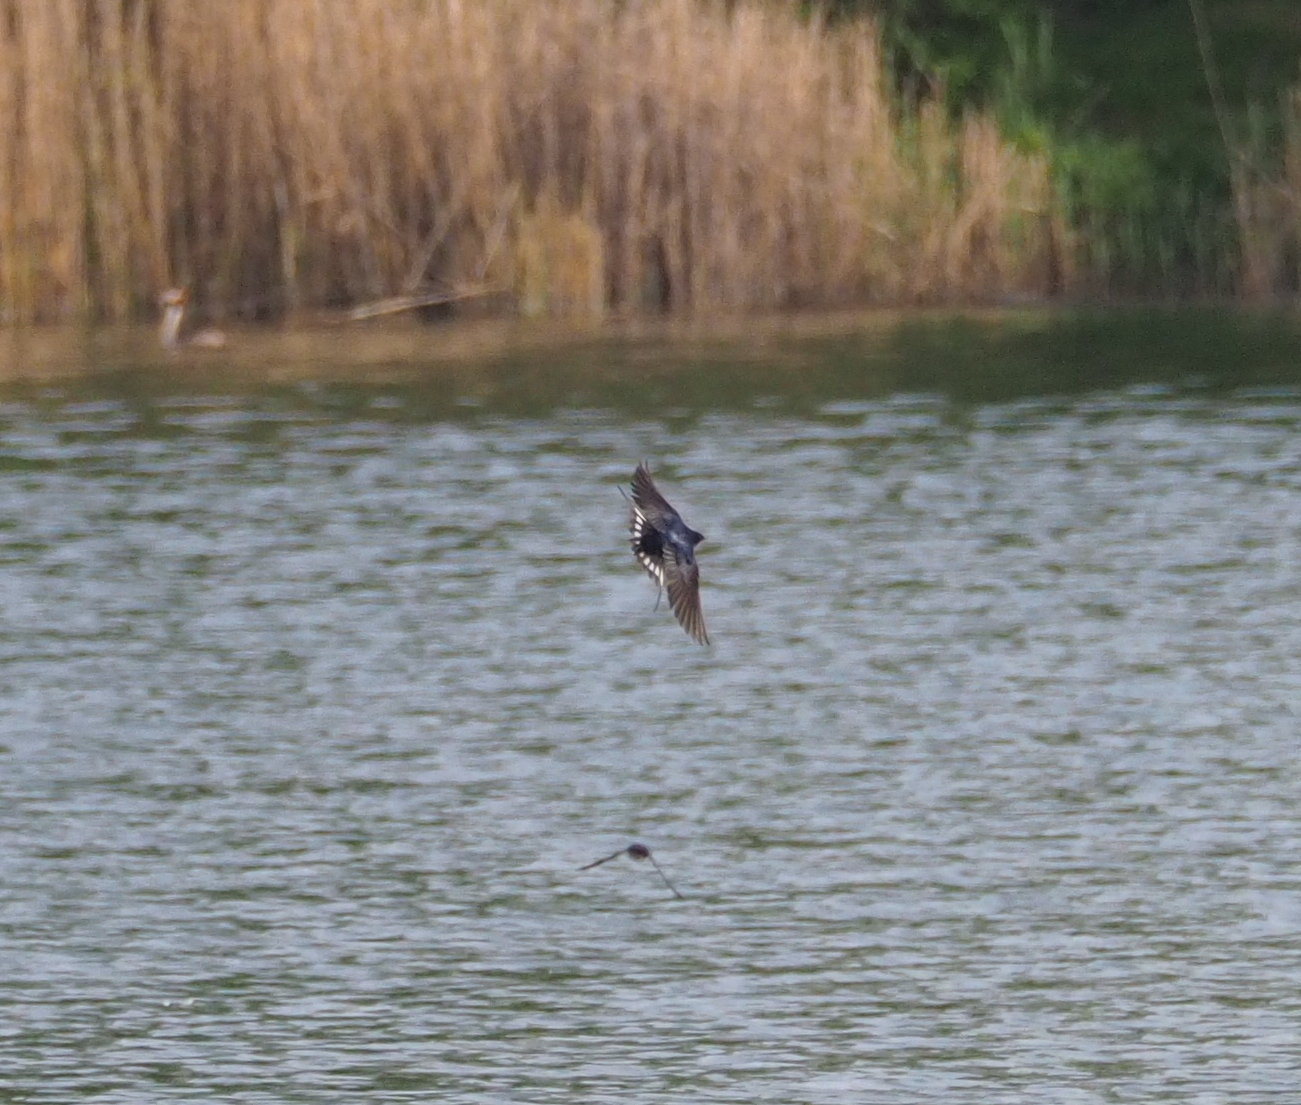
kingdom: Animalia
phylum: Chordata
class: Aves
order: Passeriformes
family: Hirundinidae
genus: Hirundo
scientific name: Hirundo rustica
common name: Barn swallow
